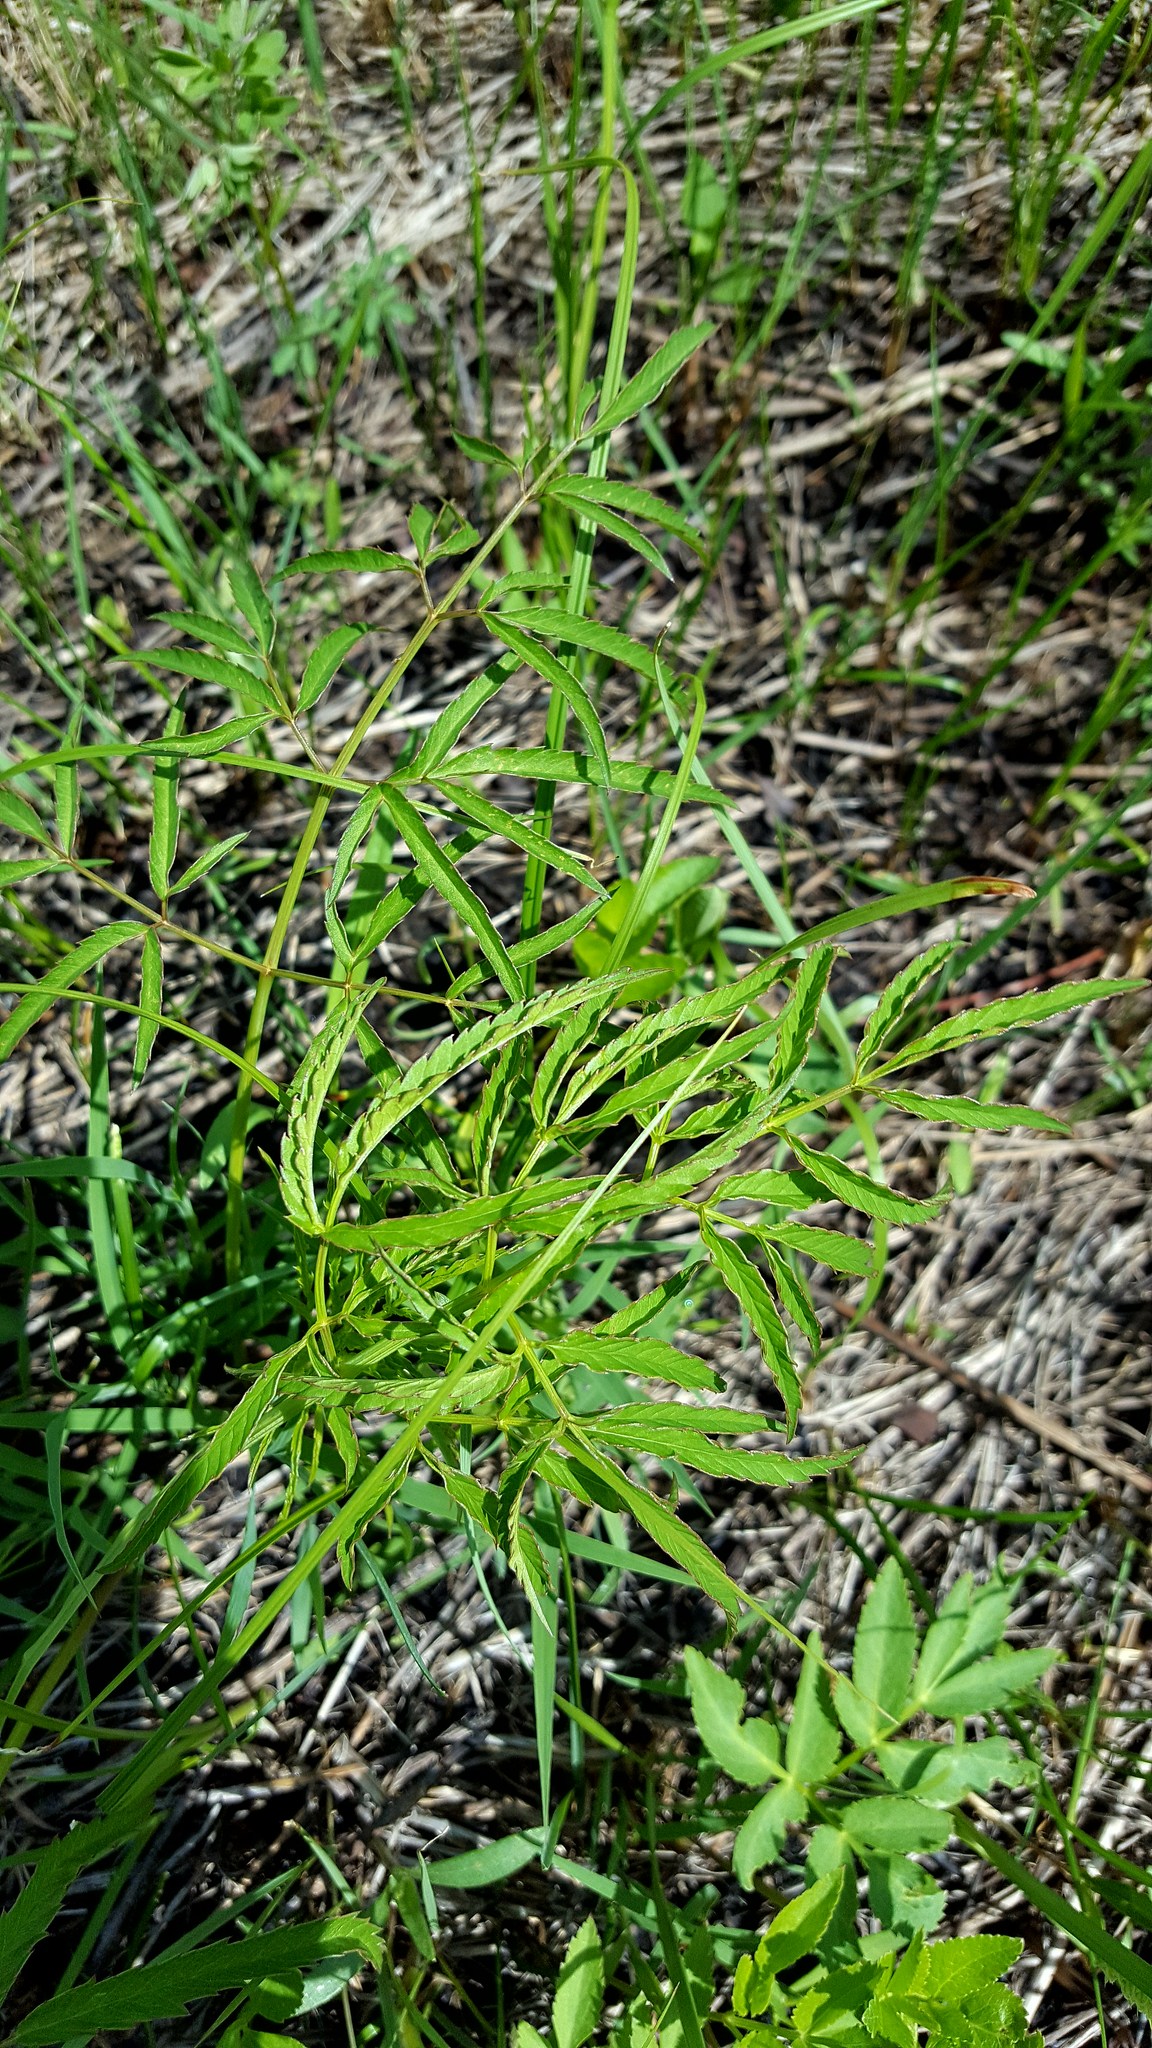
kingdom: Plantae
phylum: Tracheophyta
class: Magnoliopsida
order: Apiales
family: Apiaceae
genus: Cicuta
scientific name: Cicuta maculata
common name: Spotted cowbane
